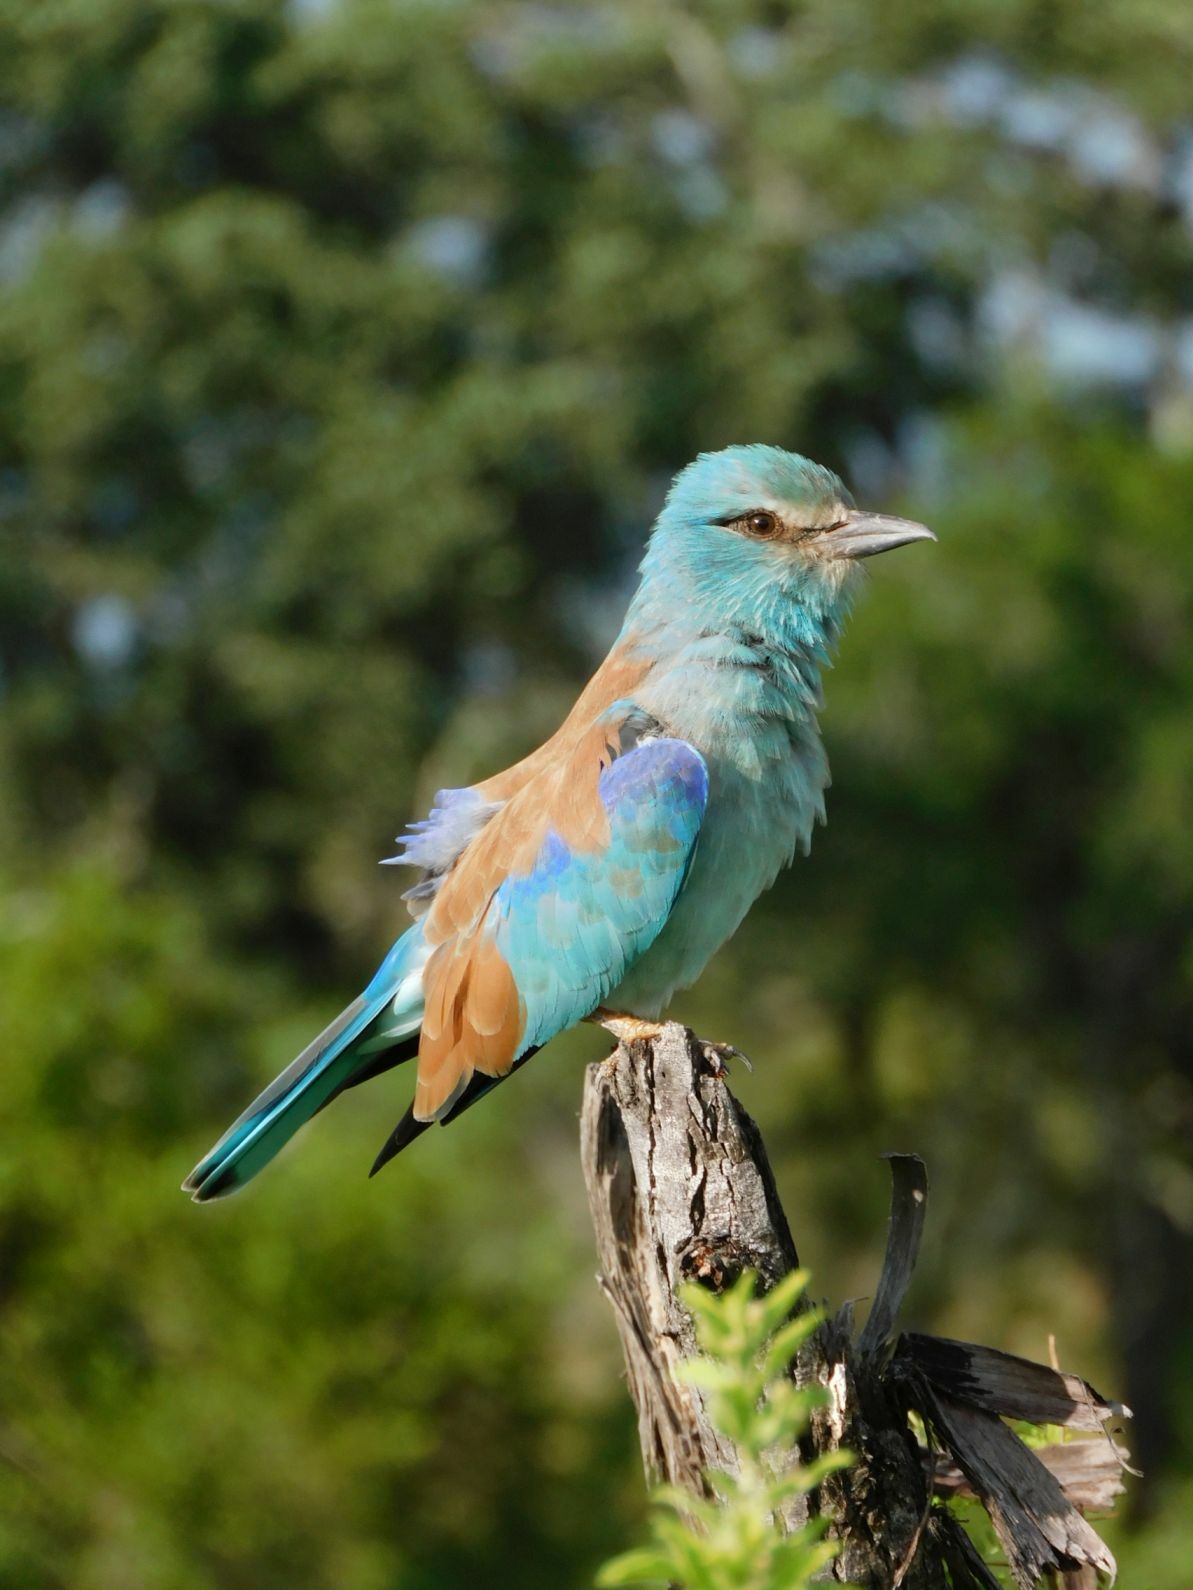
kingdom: Animalia
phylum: Chordata
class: Aves
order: Coraciiformes
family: Coraciidae
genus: Coracias
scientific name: Coracias garrulus
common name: European roller
